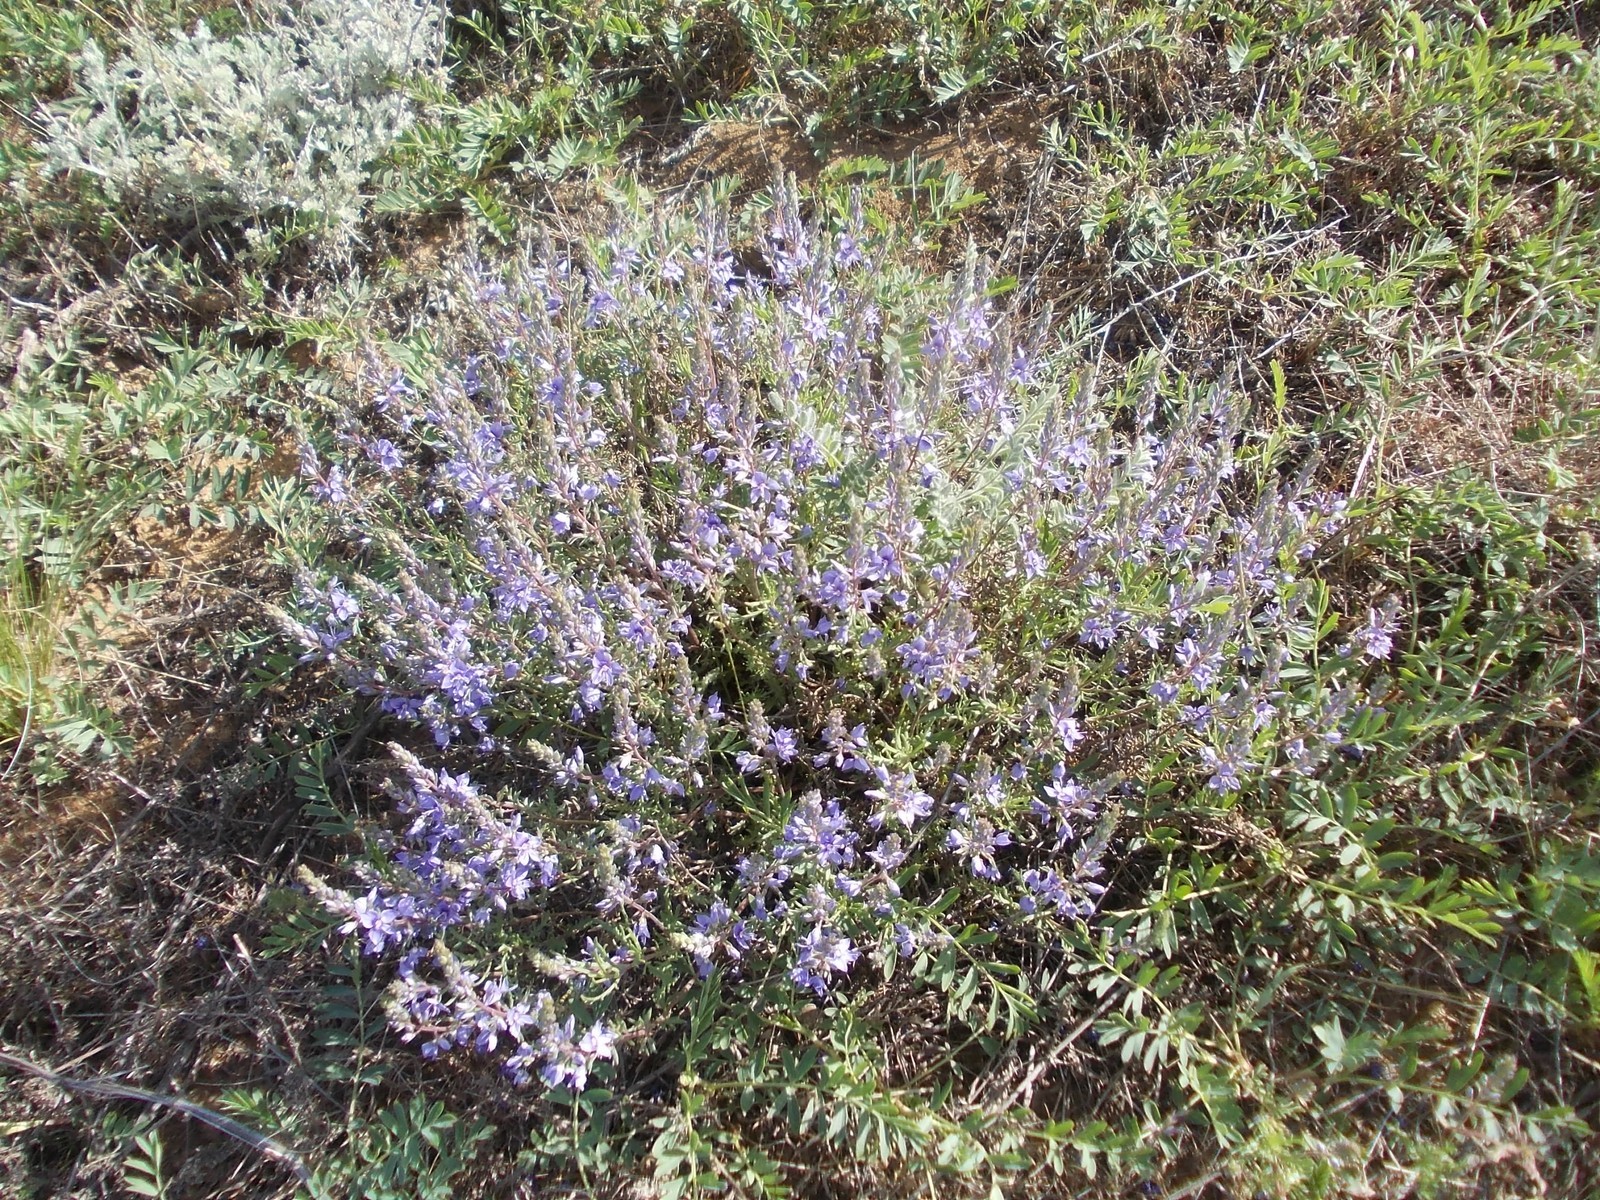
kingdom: Plantae
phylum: Tracheophyta
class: Magnoliopsida
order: Lamiales
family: Plantaginaceae
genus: Veronica
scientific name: Veronica multifida
